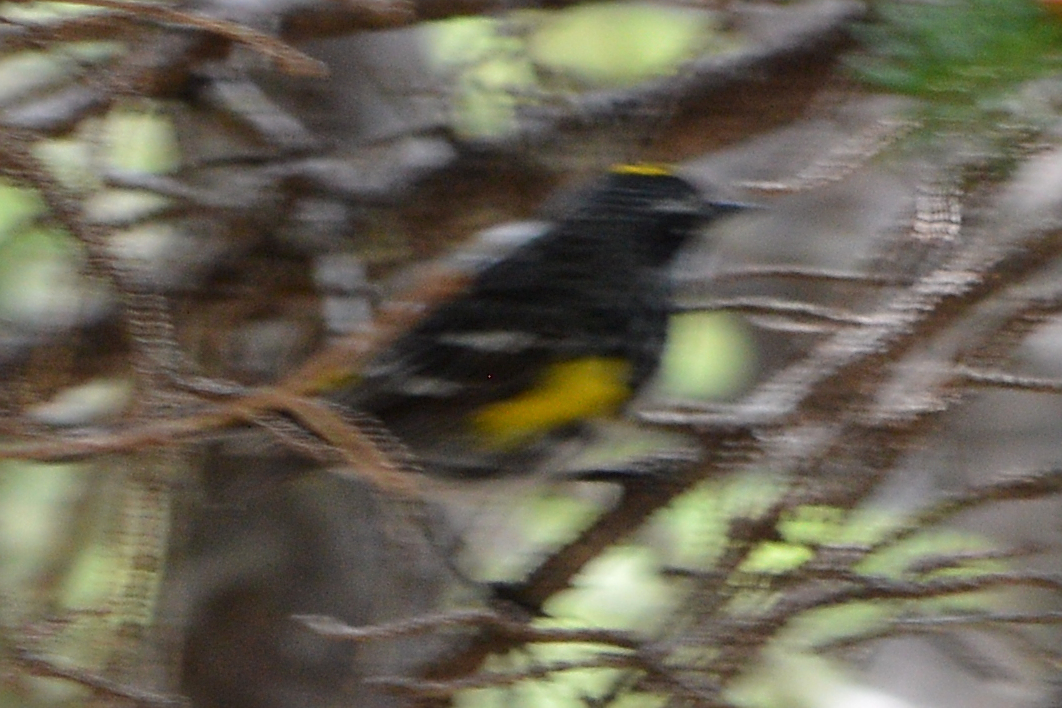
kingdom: Animalia
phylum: Chordata
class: Aves
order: Passeriformes
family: Parulidae
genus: Setophaga
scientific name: Setophaga coronata
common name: Myrtle warbler
